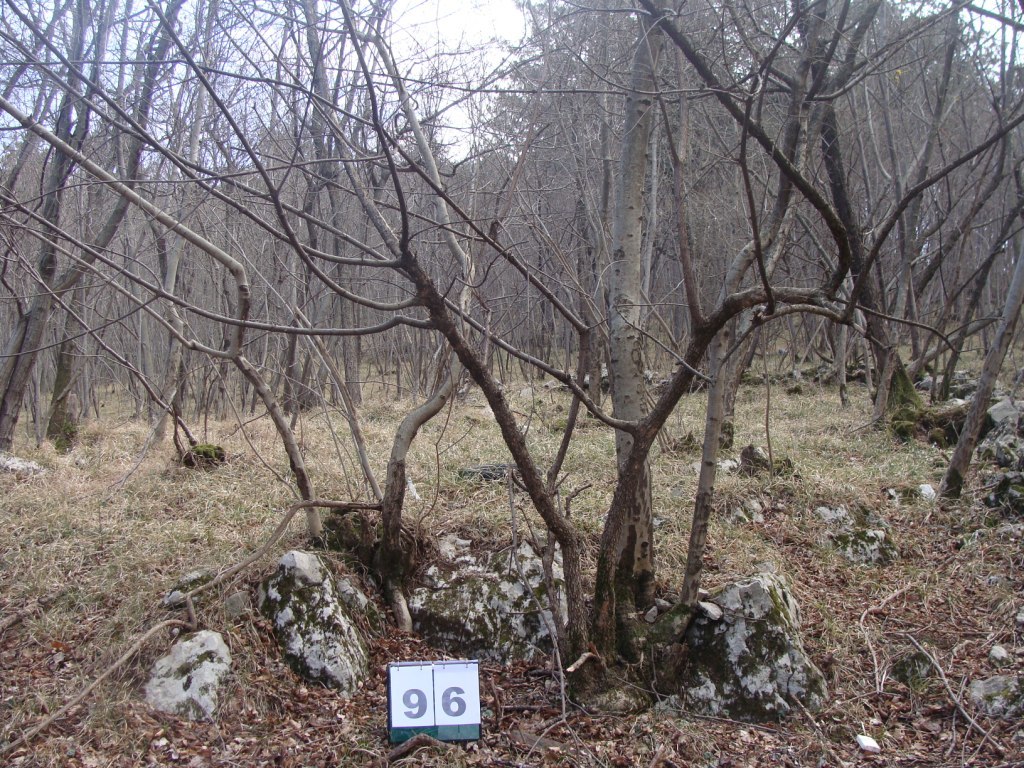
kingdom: Plantae
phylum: Tracheophyta
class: Magnoliopsida
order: Cornales
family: Cornaceae
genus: Cornus
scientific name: Cornus mas
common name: Cornelian-cherry
